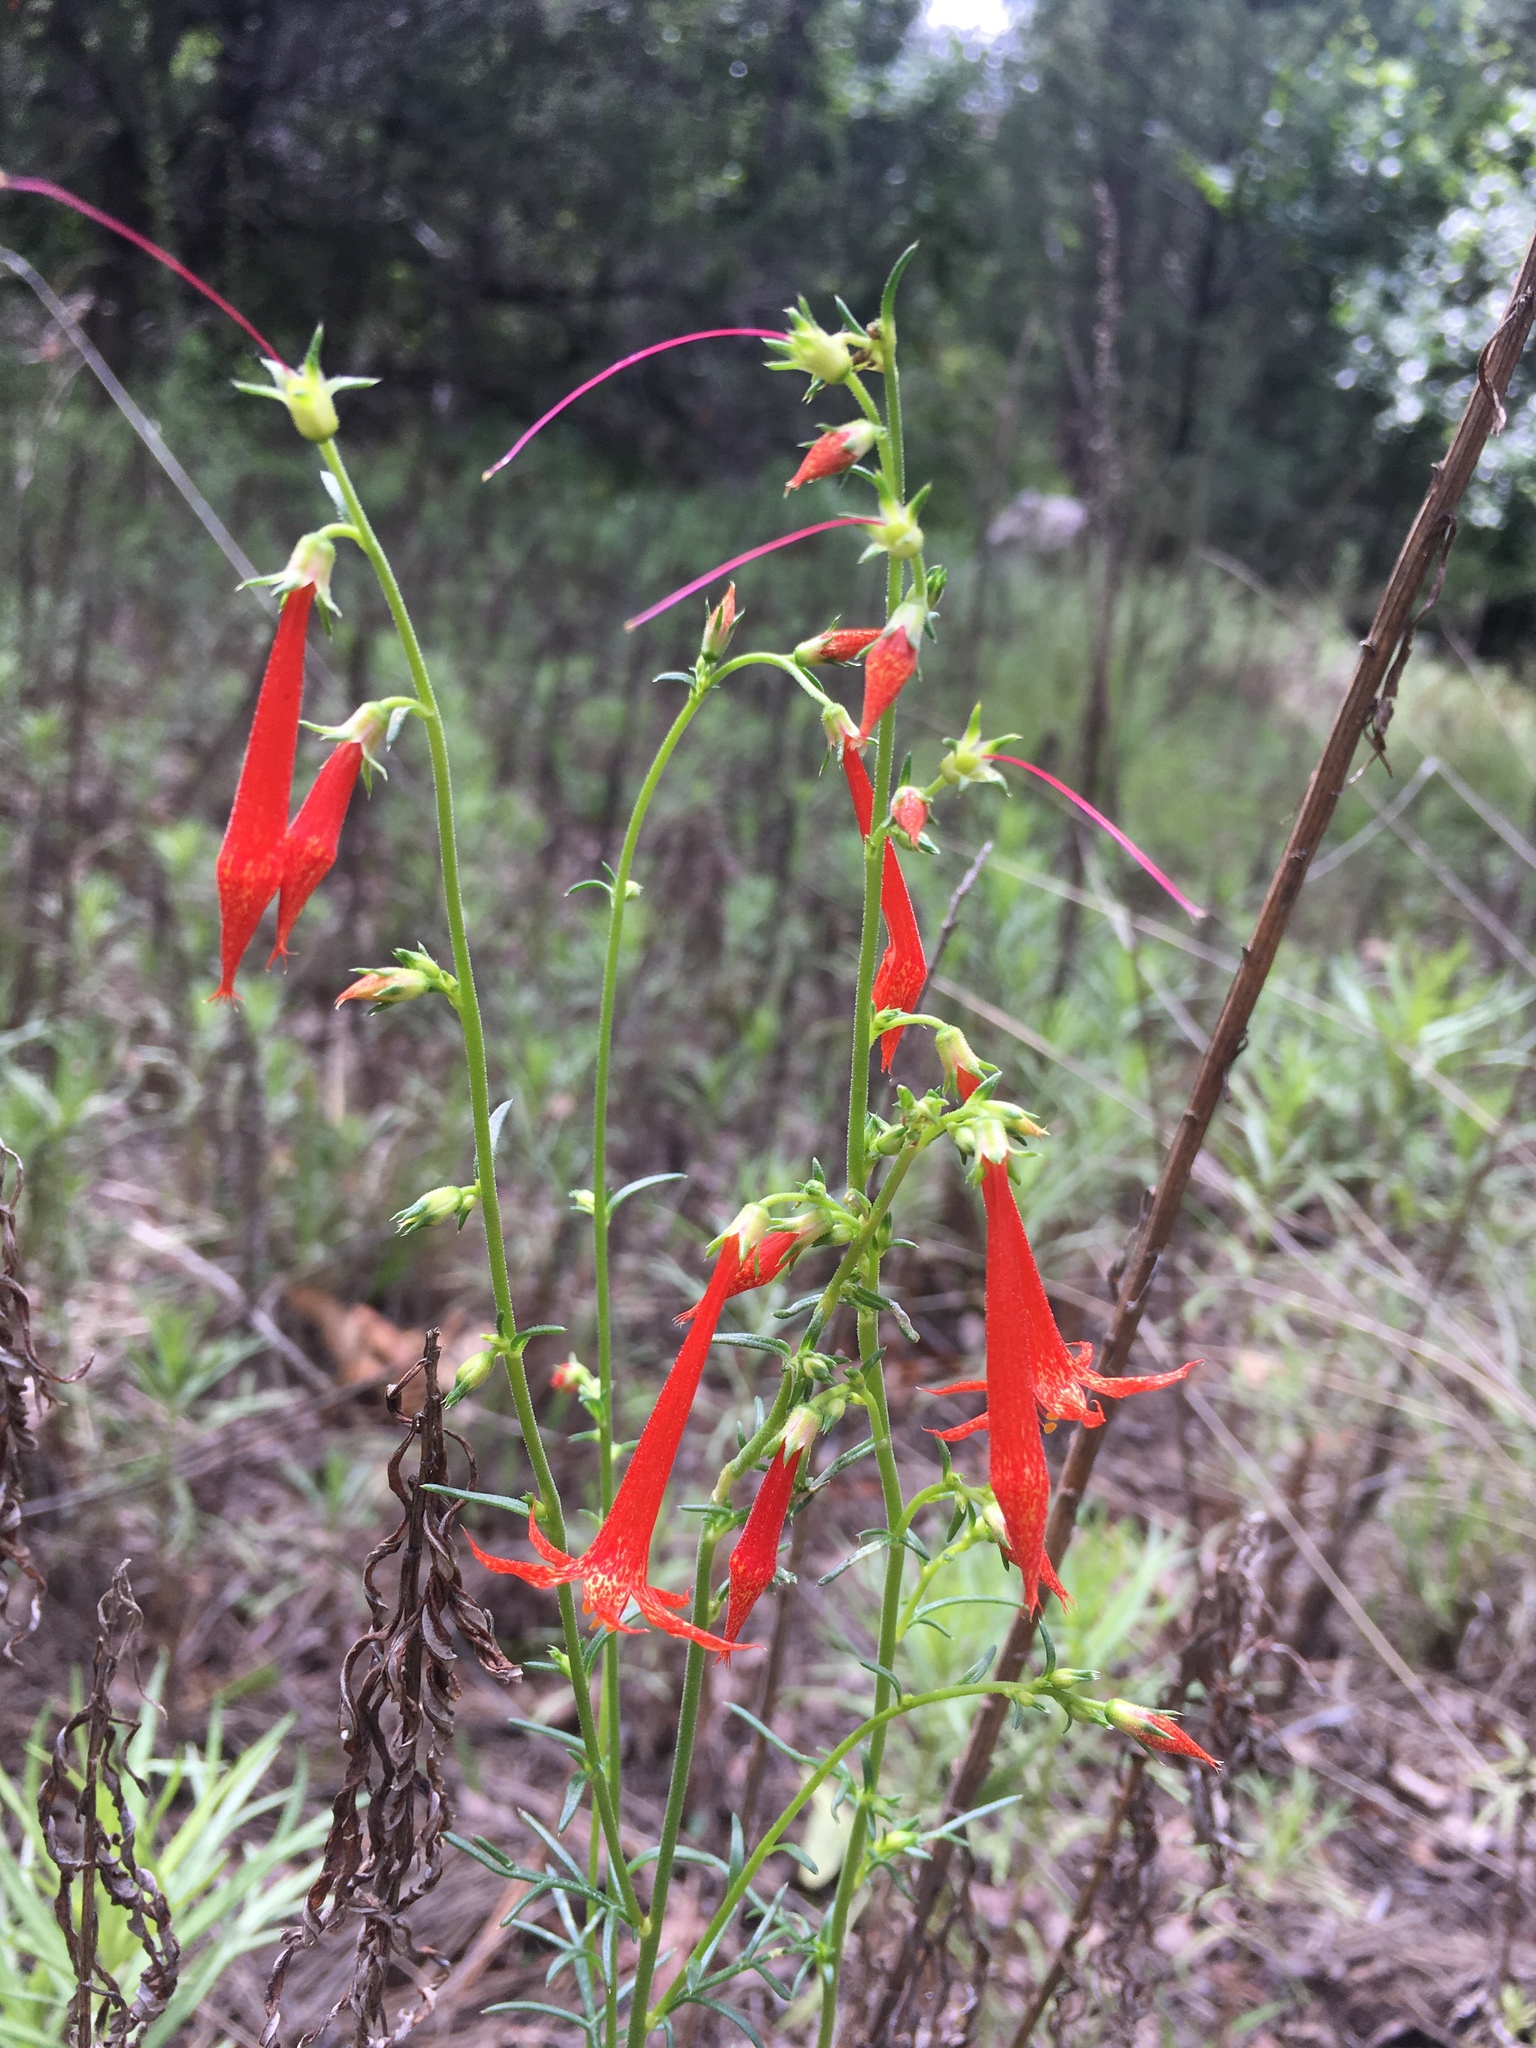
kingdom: Plantae
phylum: Tracheophyta
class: Magnoliopsida
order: Ericales
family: Polemoniaceae
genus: Ipomopsis
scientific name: Ipomopsis aggregata
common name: Scarlet gilia
